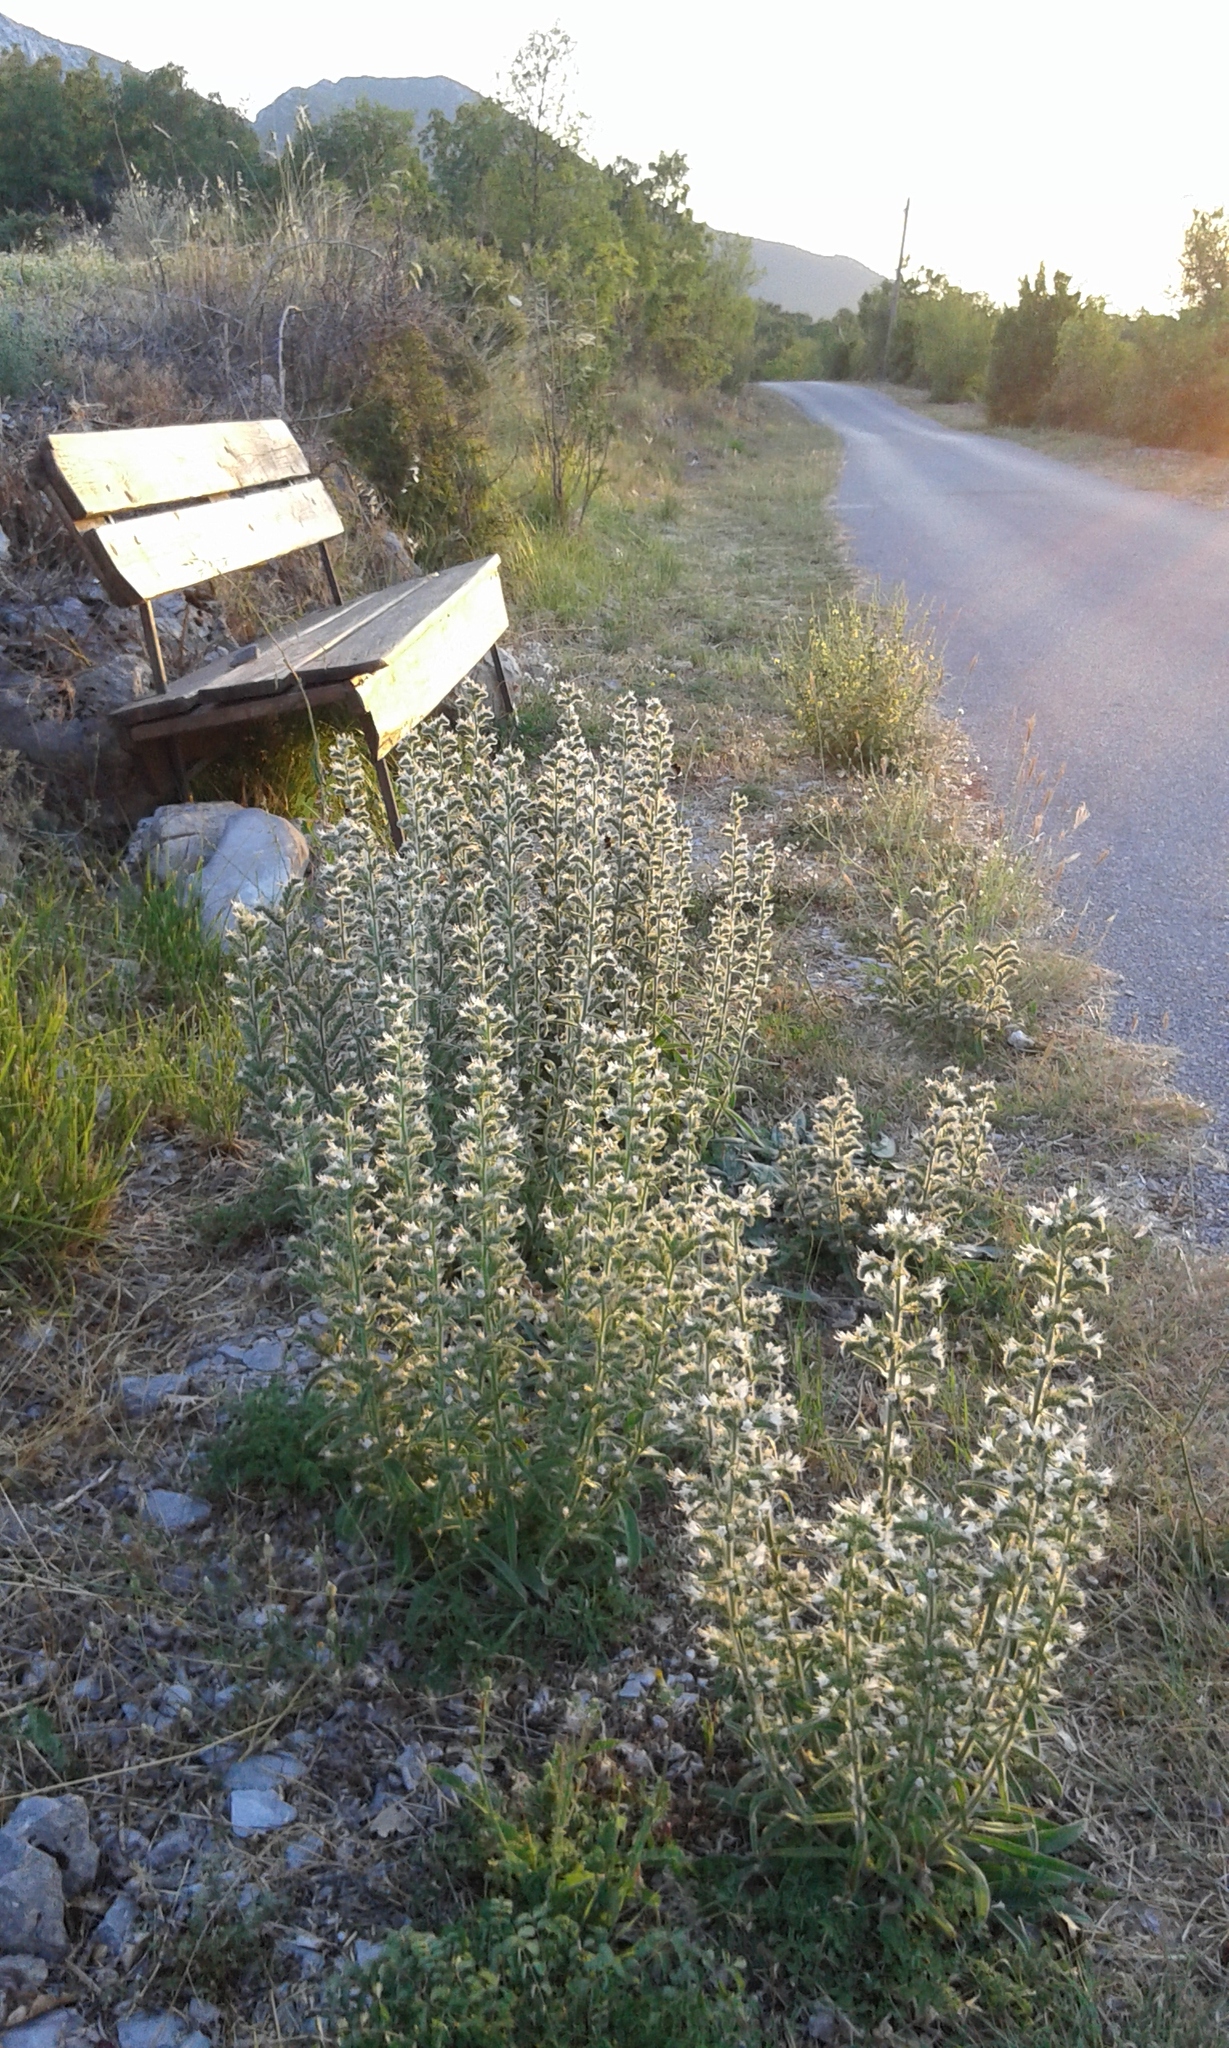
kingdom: Plantae
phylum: Tracheophyta
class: Magnoliopsida
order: Boraginales
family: Boraginaceae
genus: Echium
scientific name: Echium italicum
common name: Italian viper's bugloss
